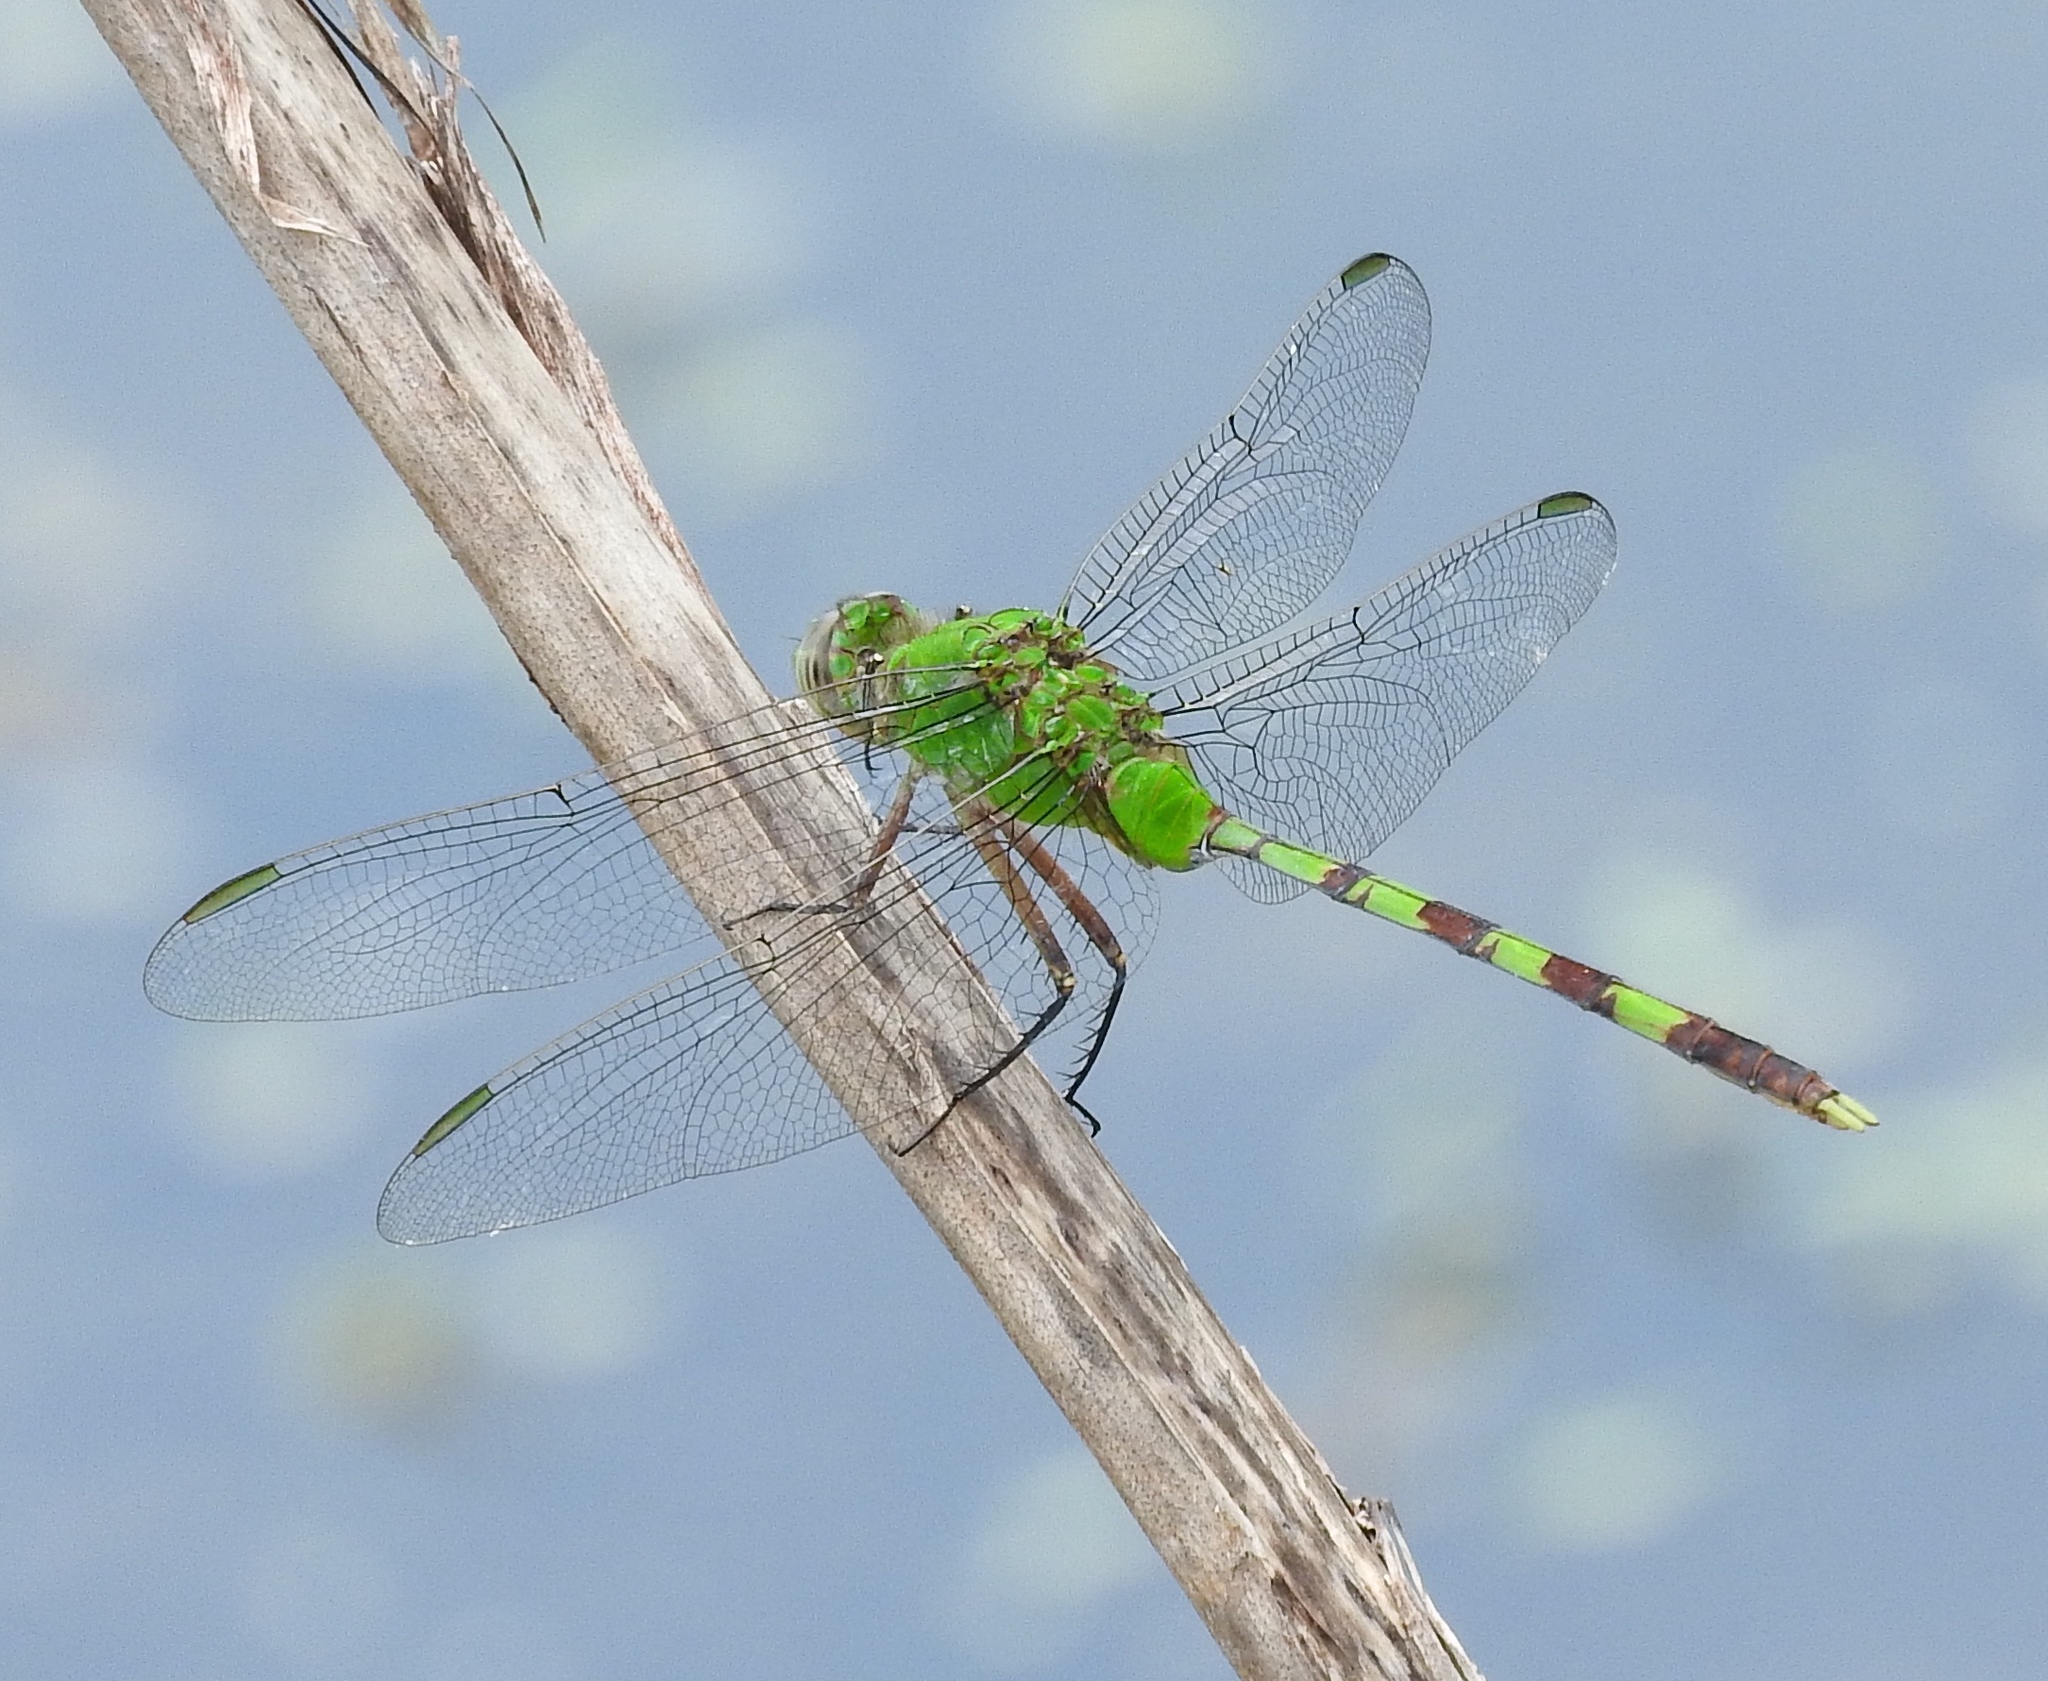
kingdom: Animalia
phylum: Arthropoda
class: Insecta
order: Odonata
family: Libellulidae
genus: Erythemis
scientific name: Erythemis vesiculosa
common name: Great pondhawk
